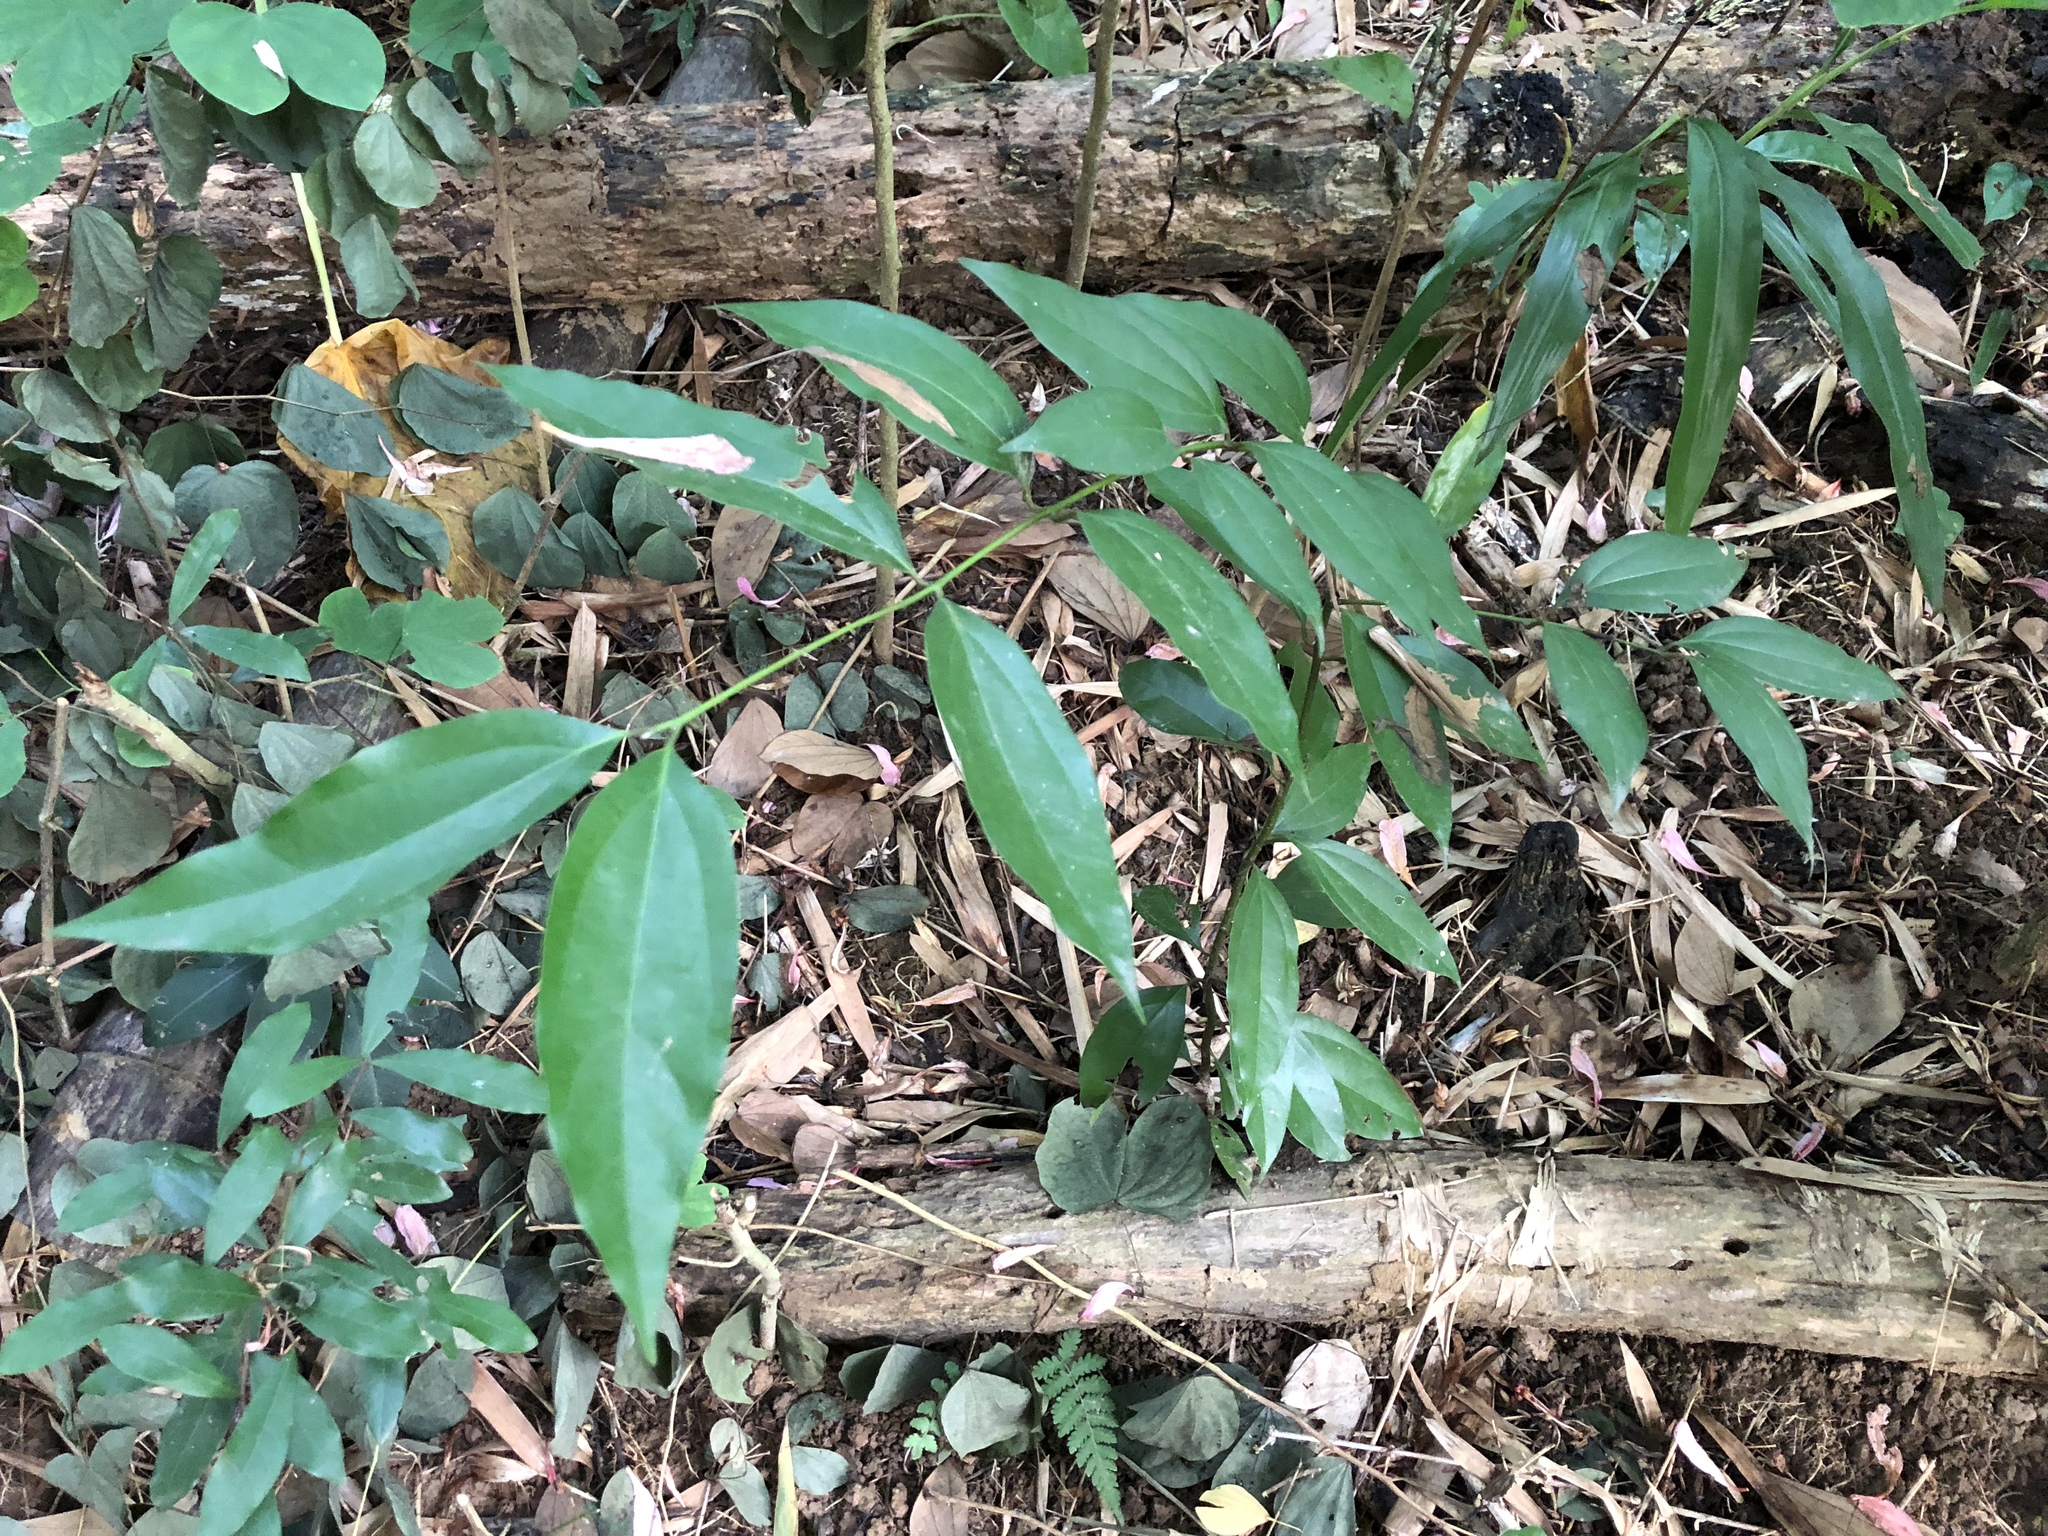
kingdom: Plantae
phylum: Tracheophyta
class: Magnoliopsida
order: Laurales
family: Lauraceae
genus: Cinnamomum
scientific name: Cinnamomum burmanni
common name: Padang cassia
